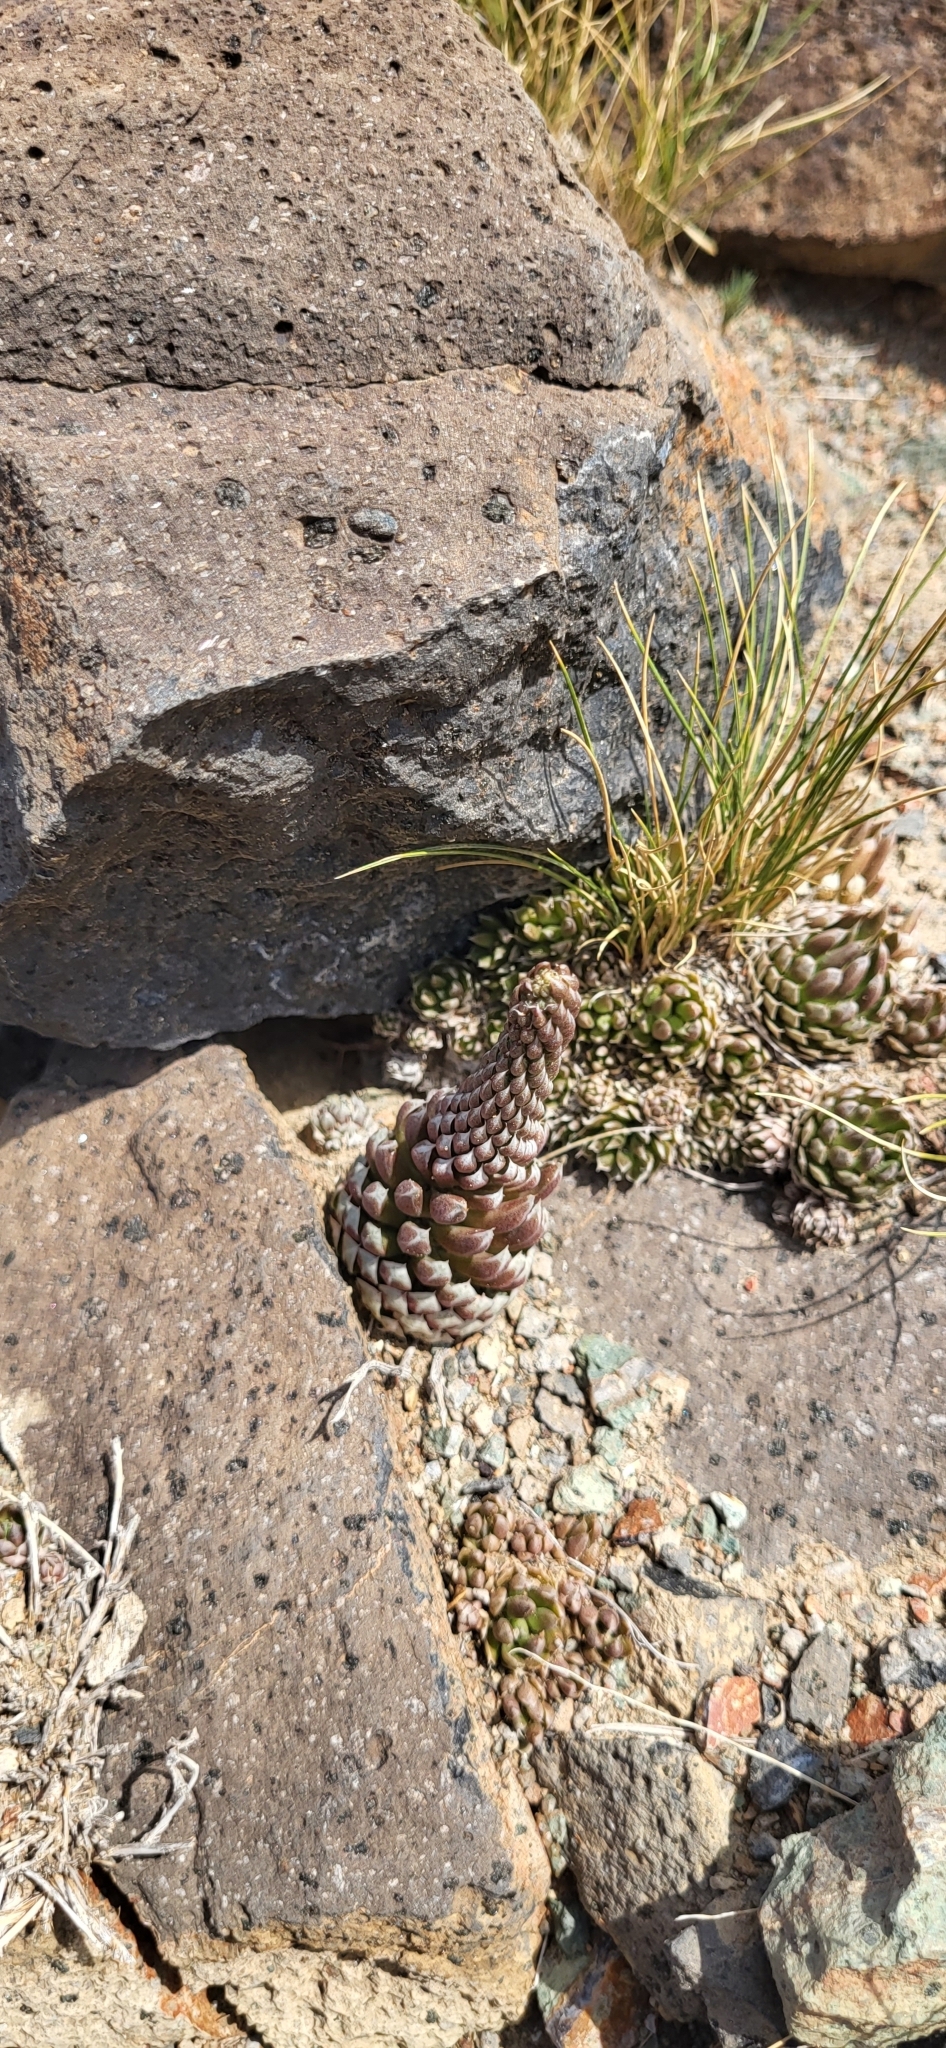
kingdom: Plantae
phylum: Tracheophyta
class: Magnoliopsida
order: Saxifragales
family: Crassulaceae
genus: Orostachys
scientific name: Orostachys spinosa
